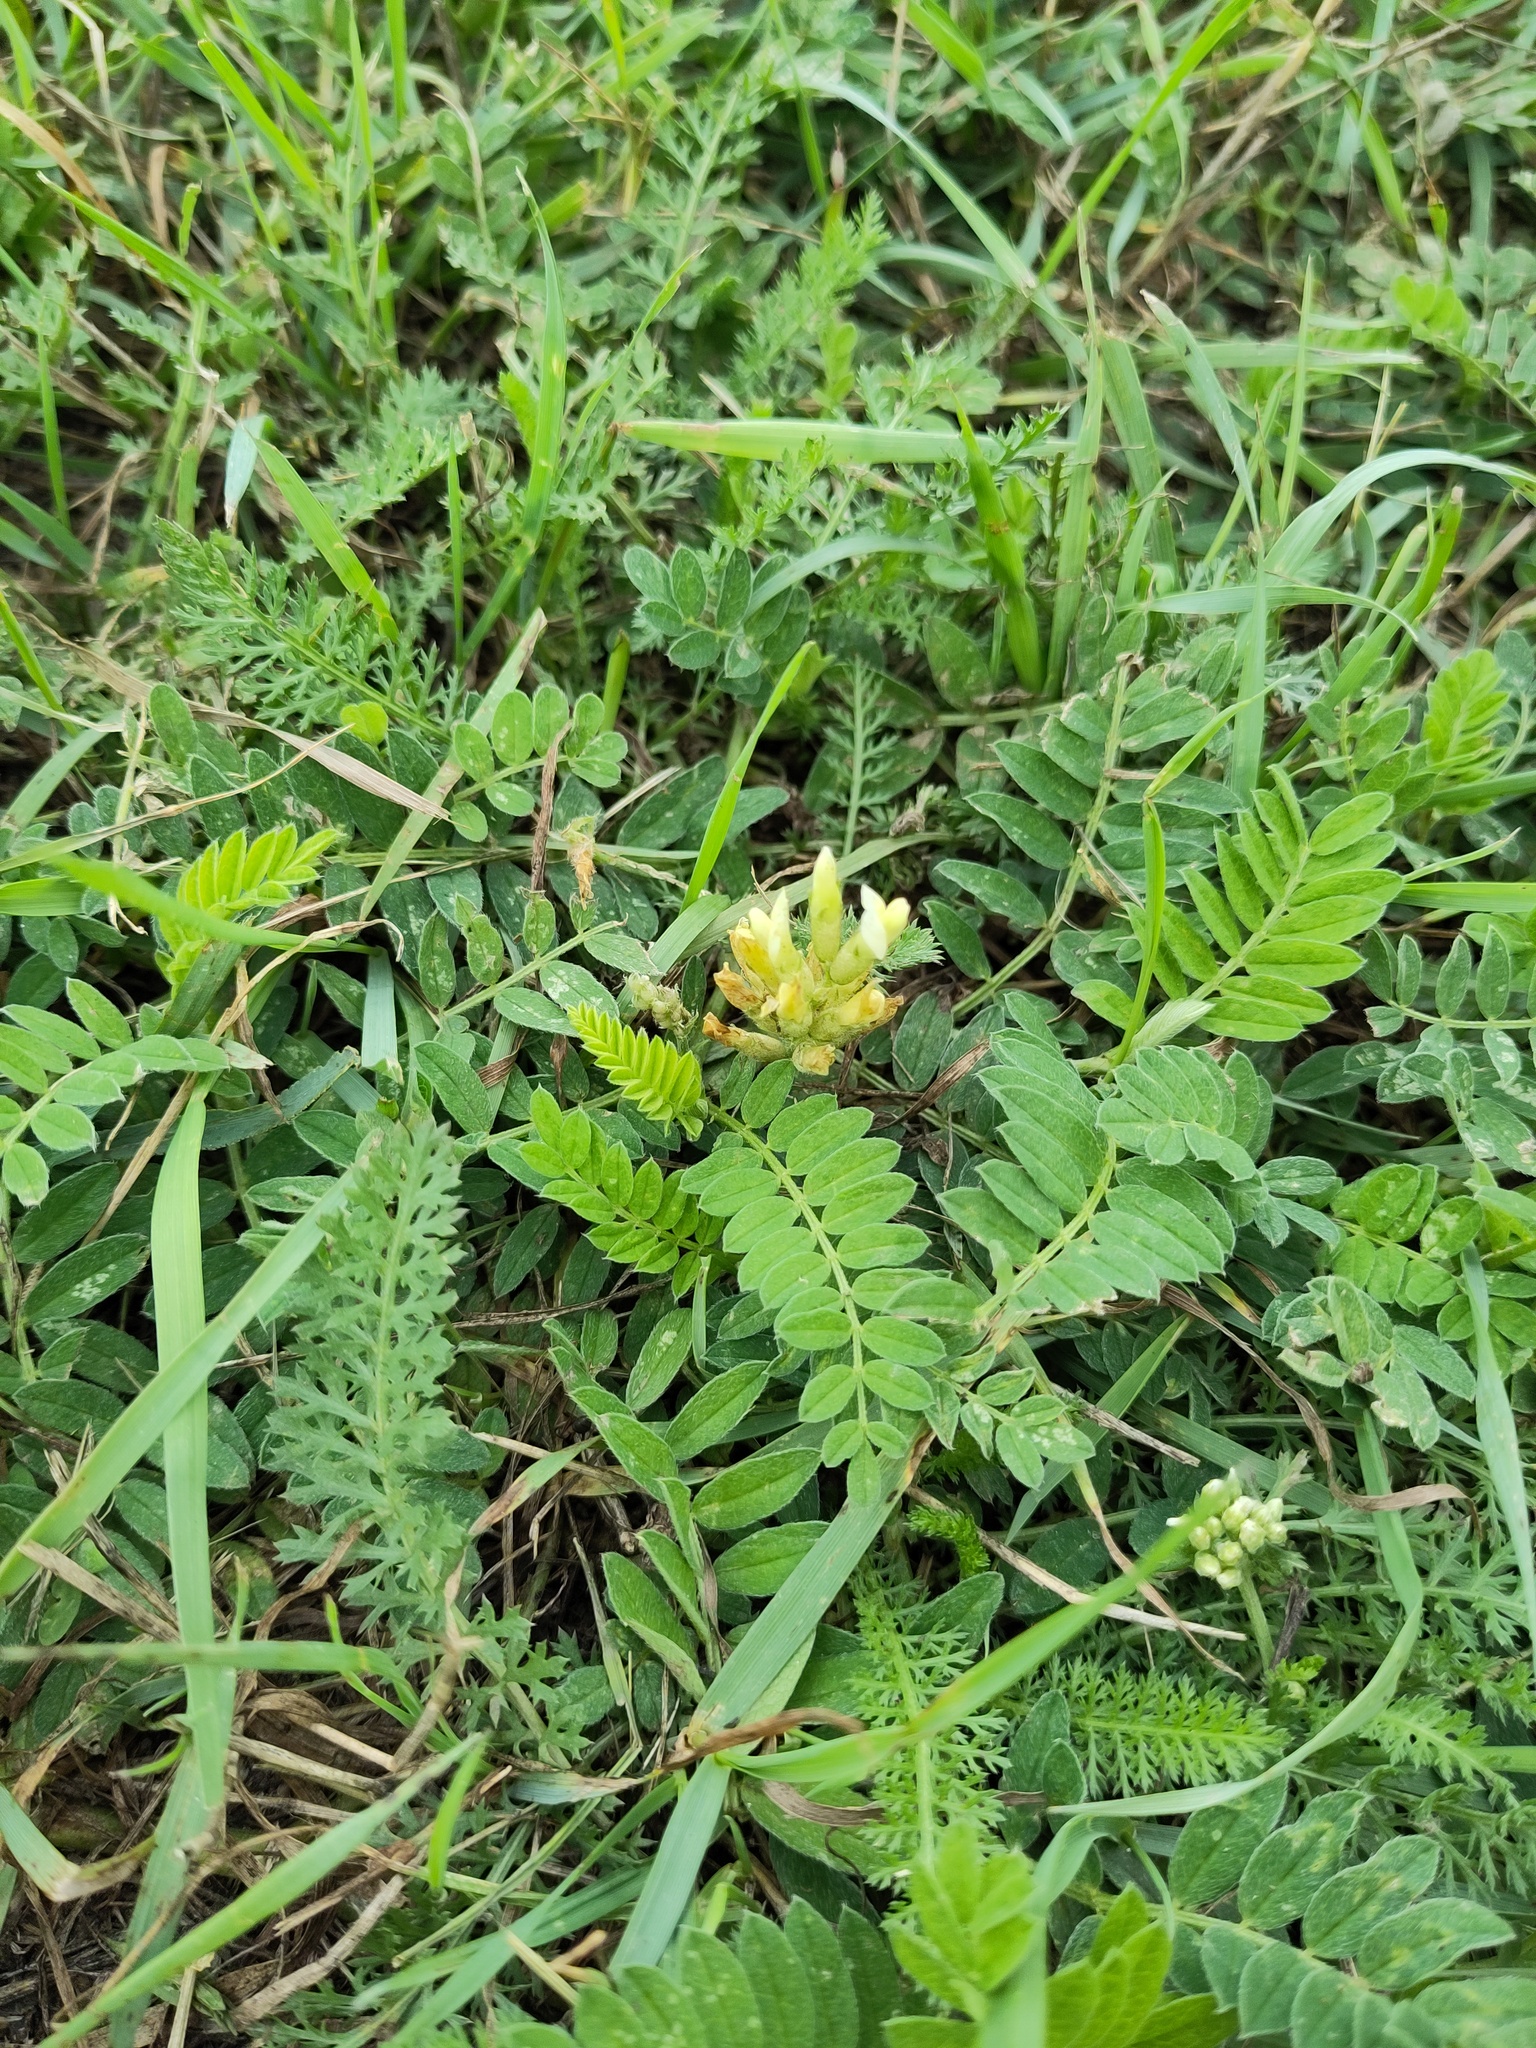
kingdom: Plantae
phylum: Tracheophyta
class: Magnoliopsida
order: Fabales
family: Fabaceae
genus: Astragalus
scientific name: Astragalus cicer
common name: Chick-pea milk-vetch
